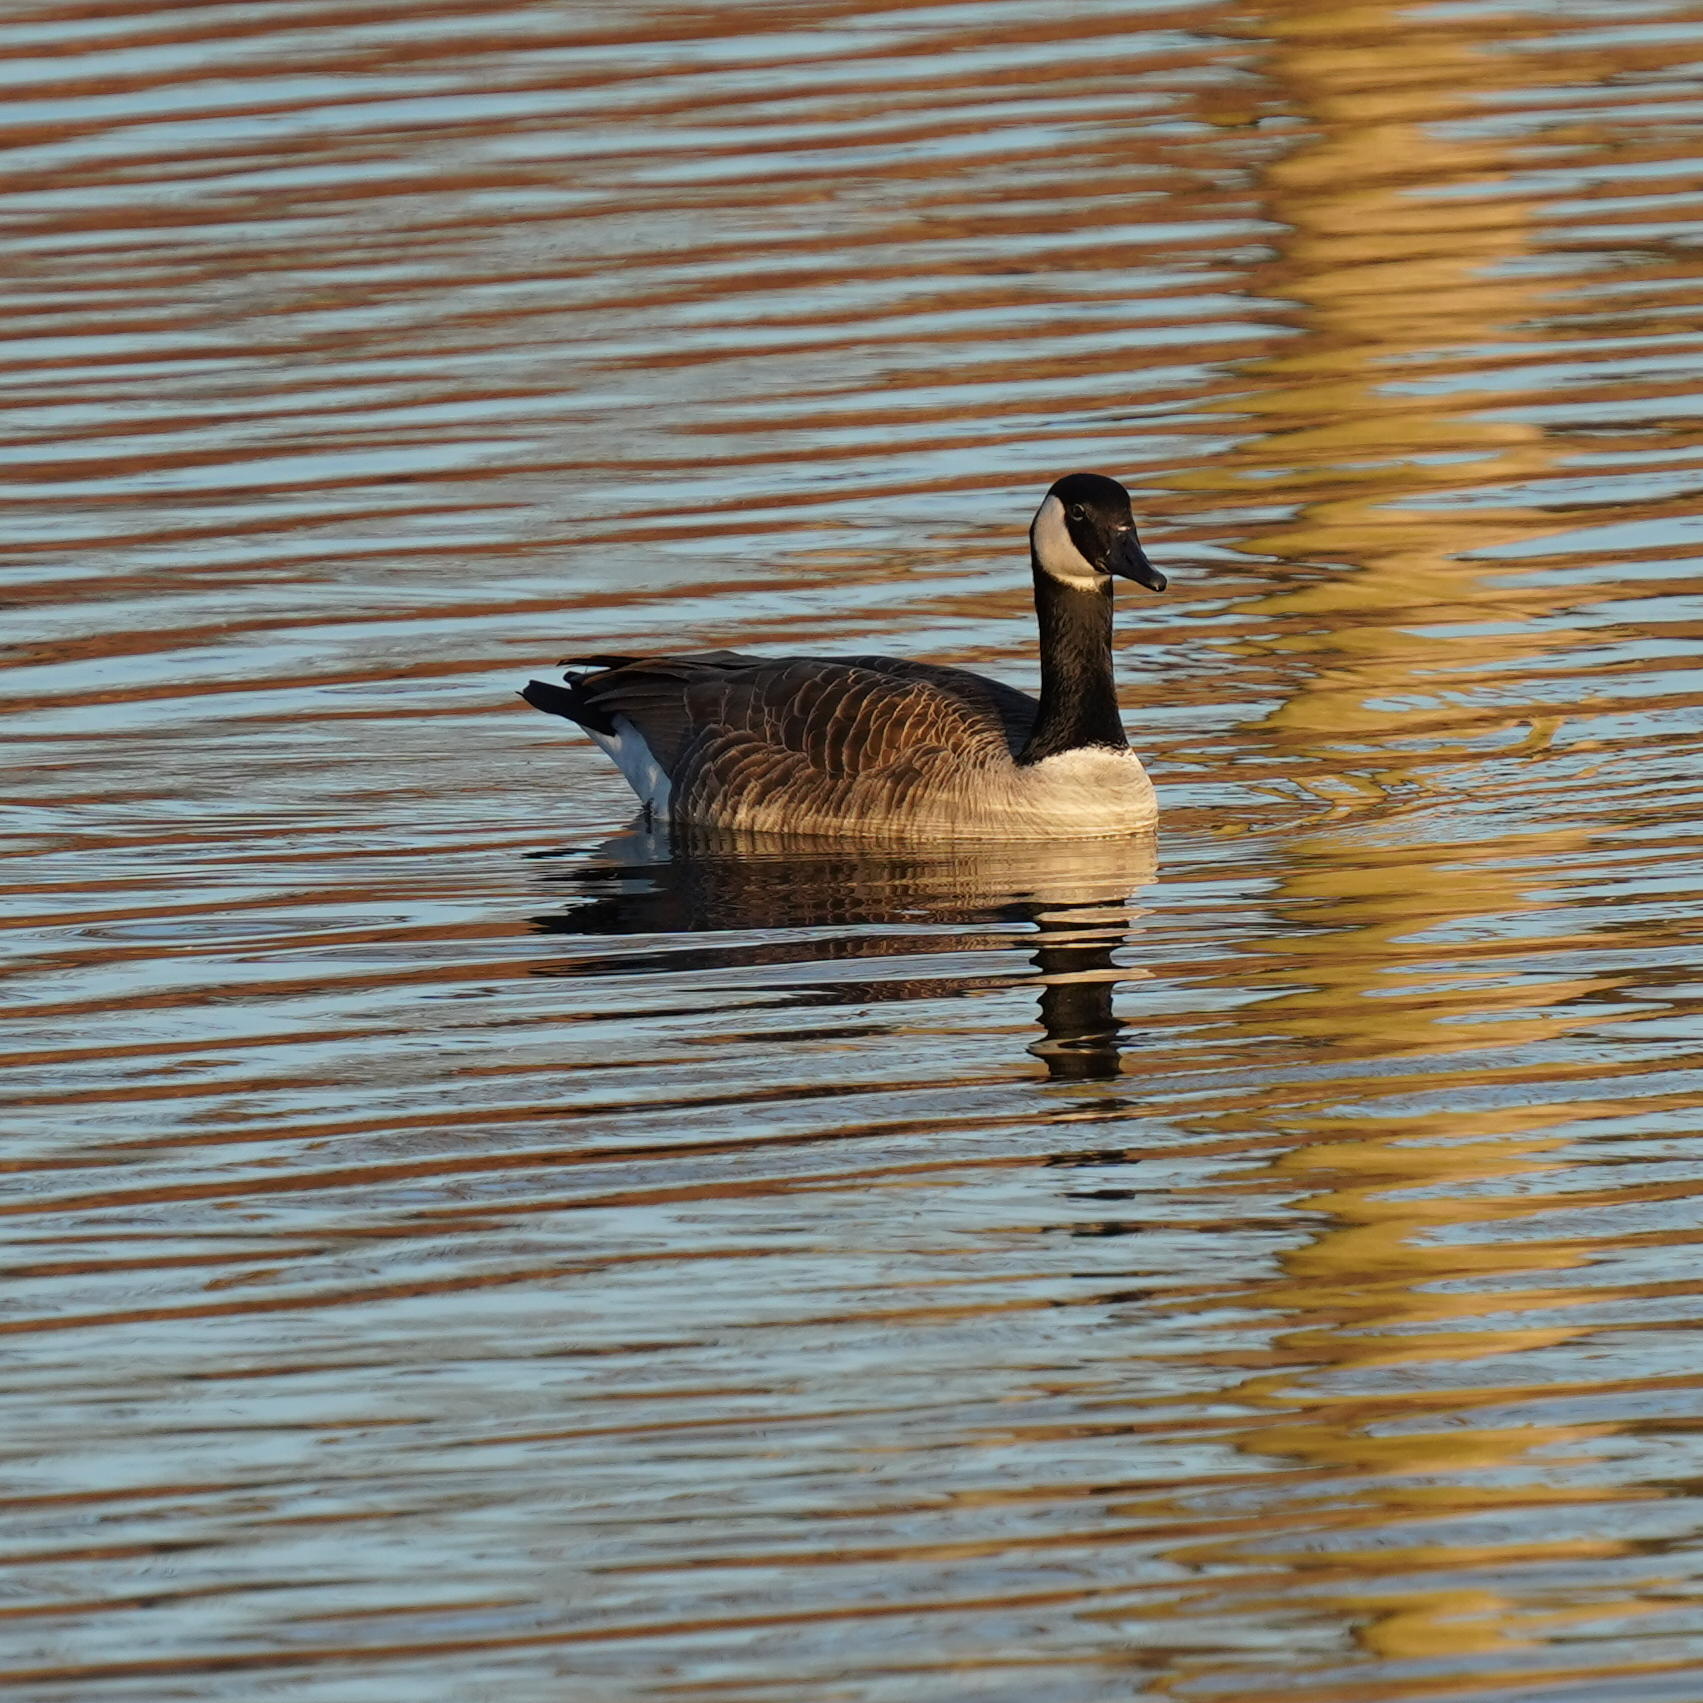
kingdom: Animalia
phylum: Chordata
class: Aves
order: Anseriformes
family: Anatidae
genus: Branta
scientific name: Branta canadensis
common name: Canada goose
